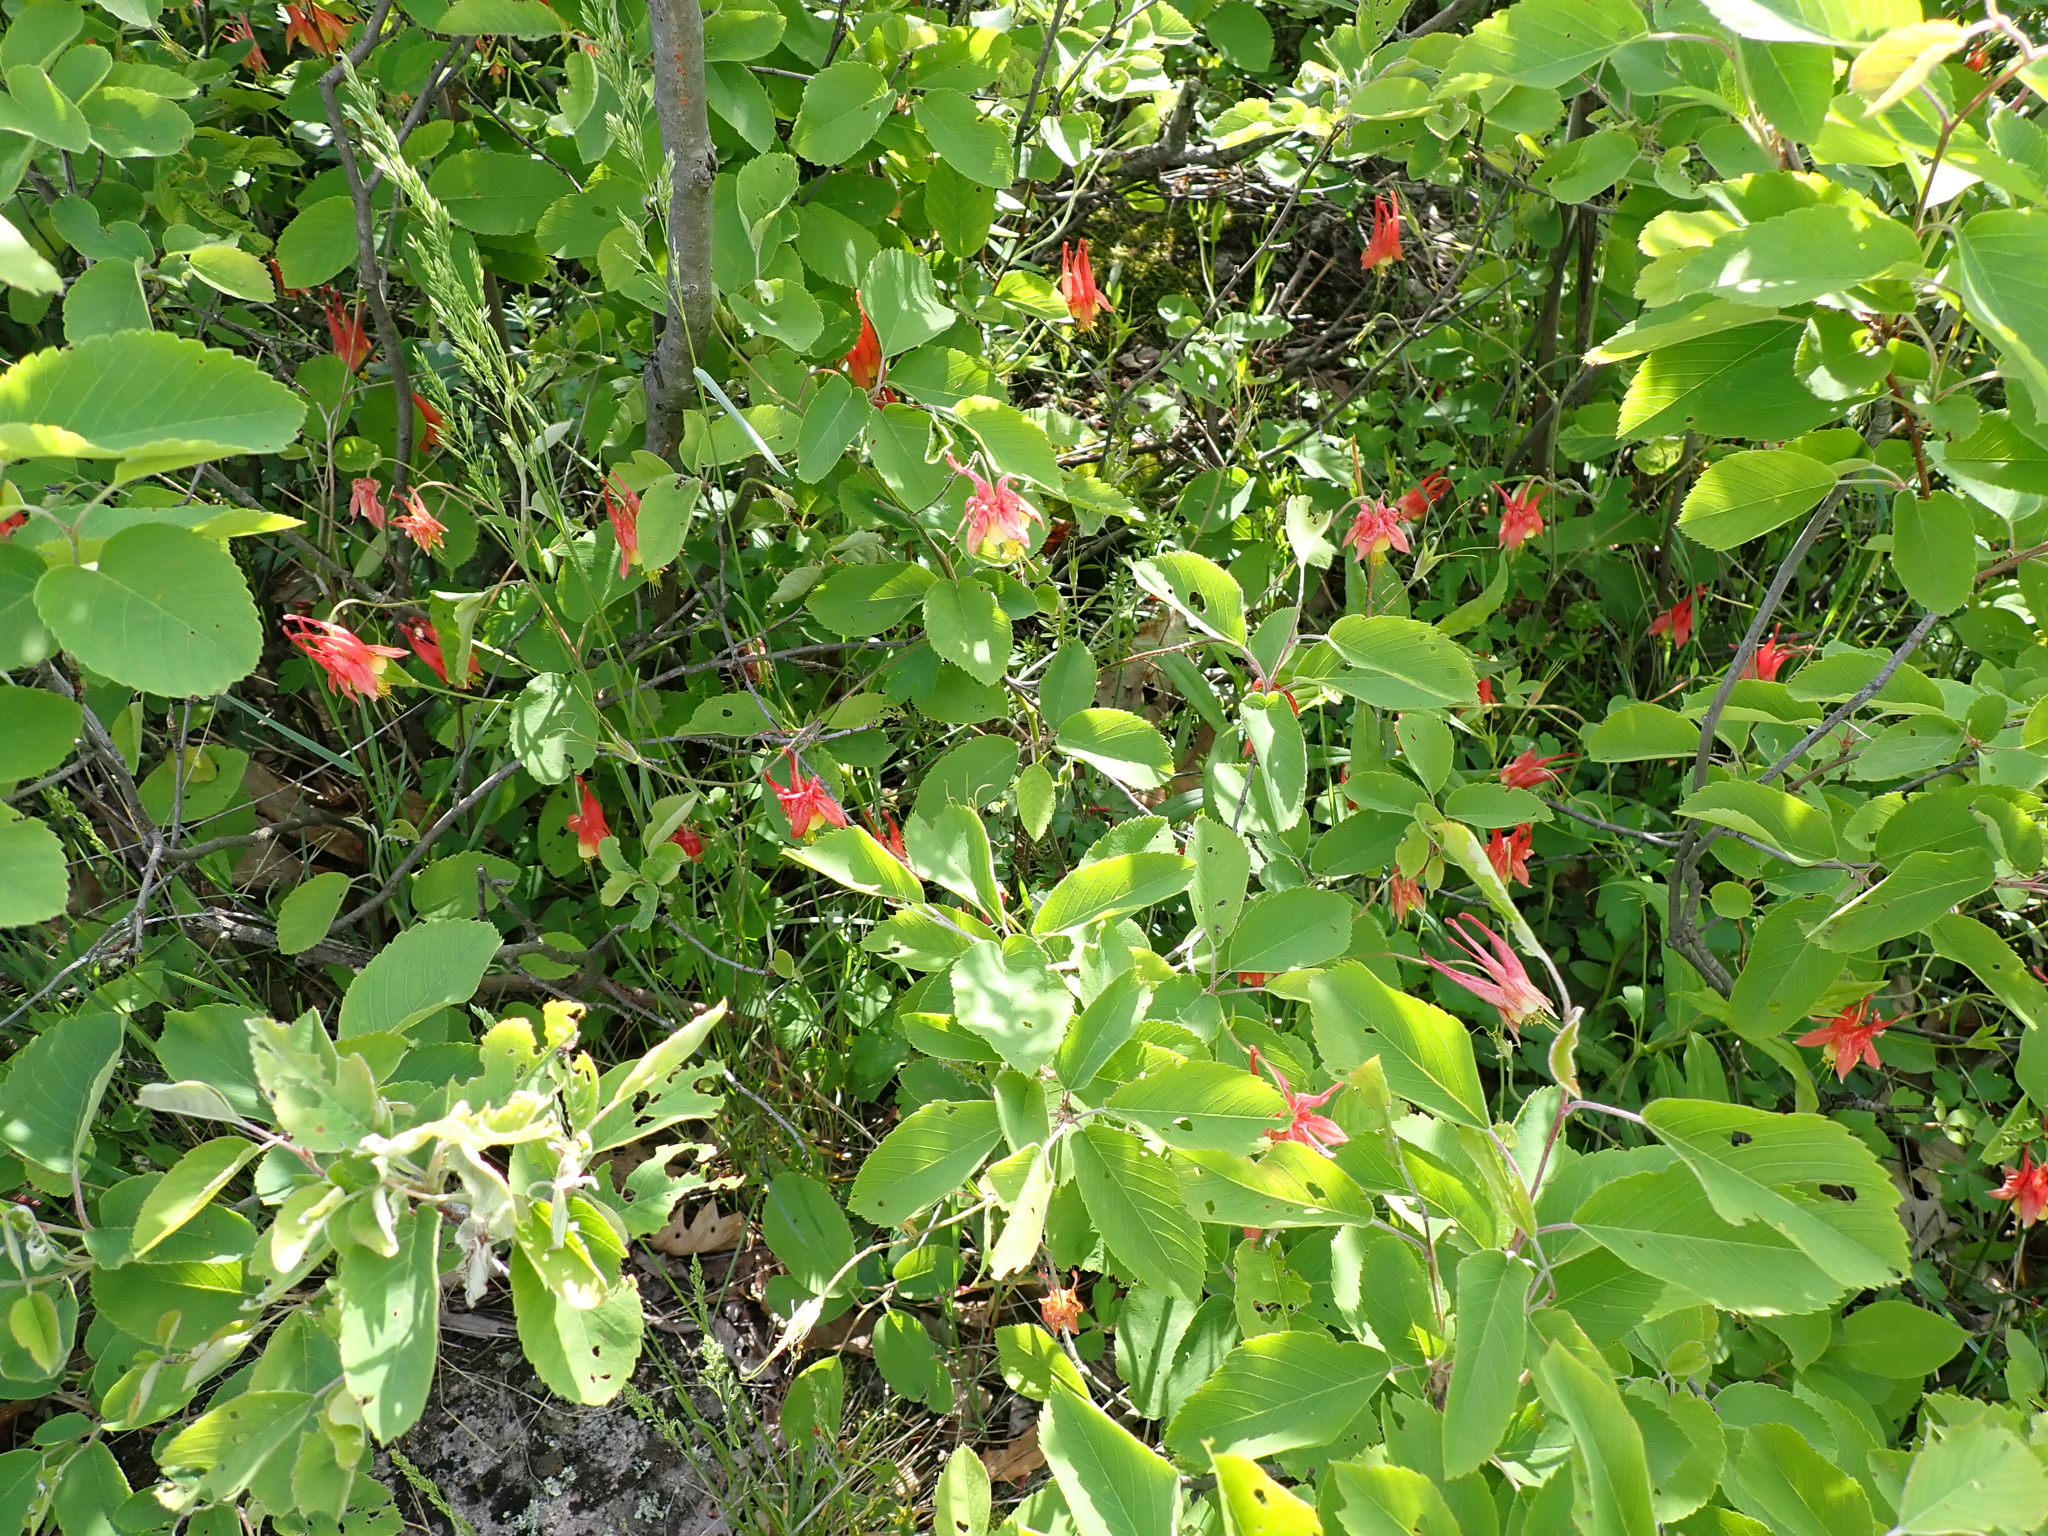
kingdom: Plantae
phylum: Tracheophyta
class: Magnoliopsida
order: Ranunculales
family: Ranunculaceae
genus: Aquilegia
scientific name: Aquilegia canadensis
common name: American columbine
